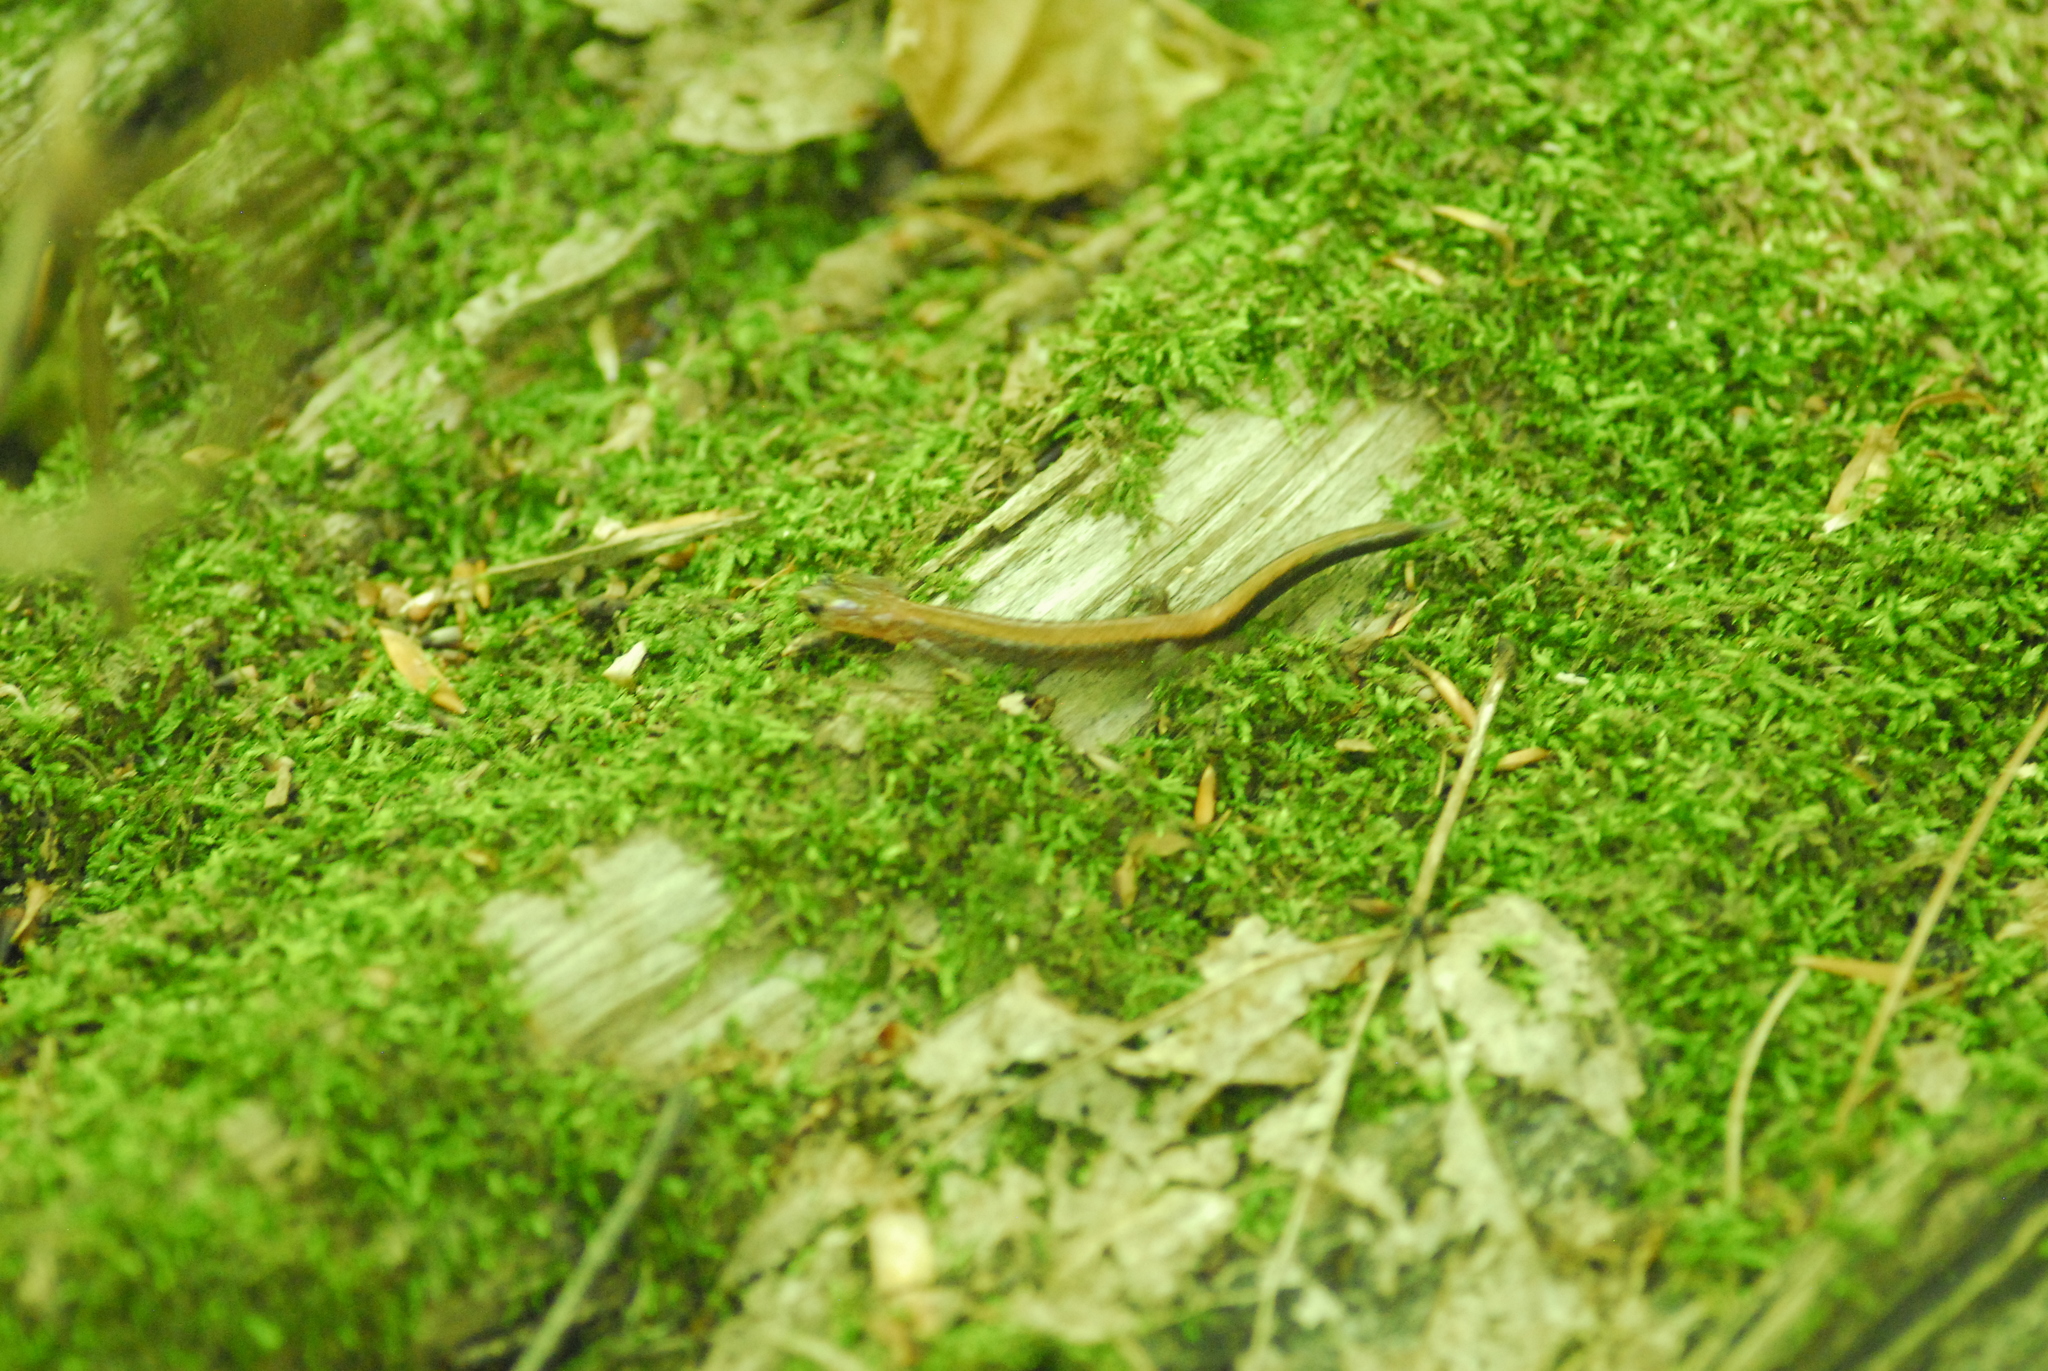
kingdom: Animalia
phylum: Chordata
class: Amphibia
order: Caudata
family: Plethodontidae
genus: Plethodon
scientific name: Plethodon cinereus
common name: Redback salamander
